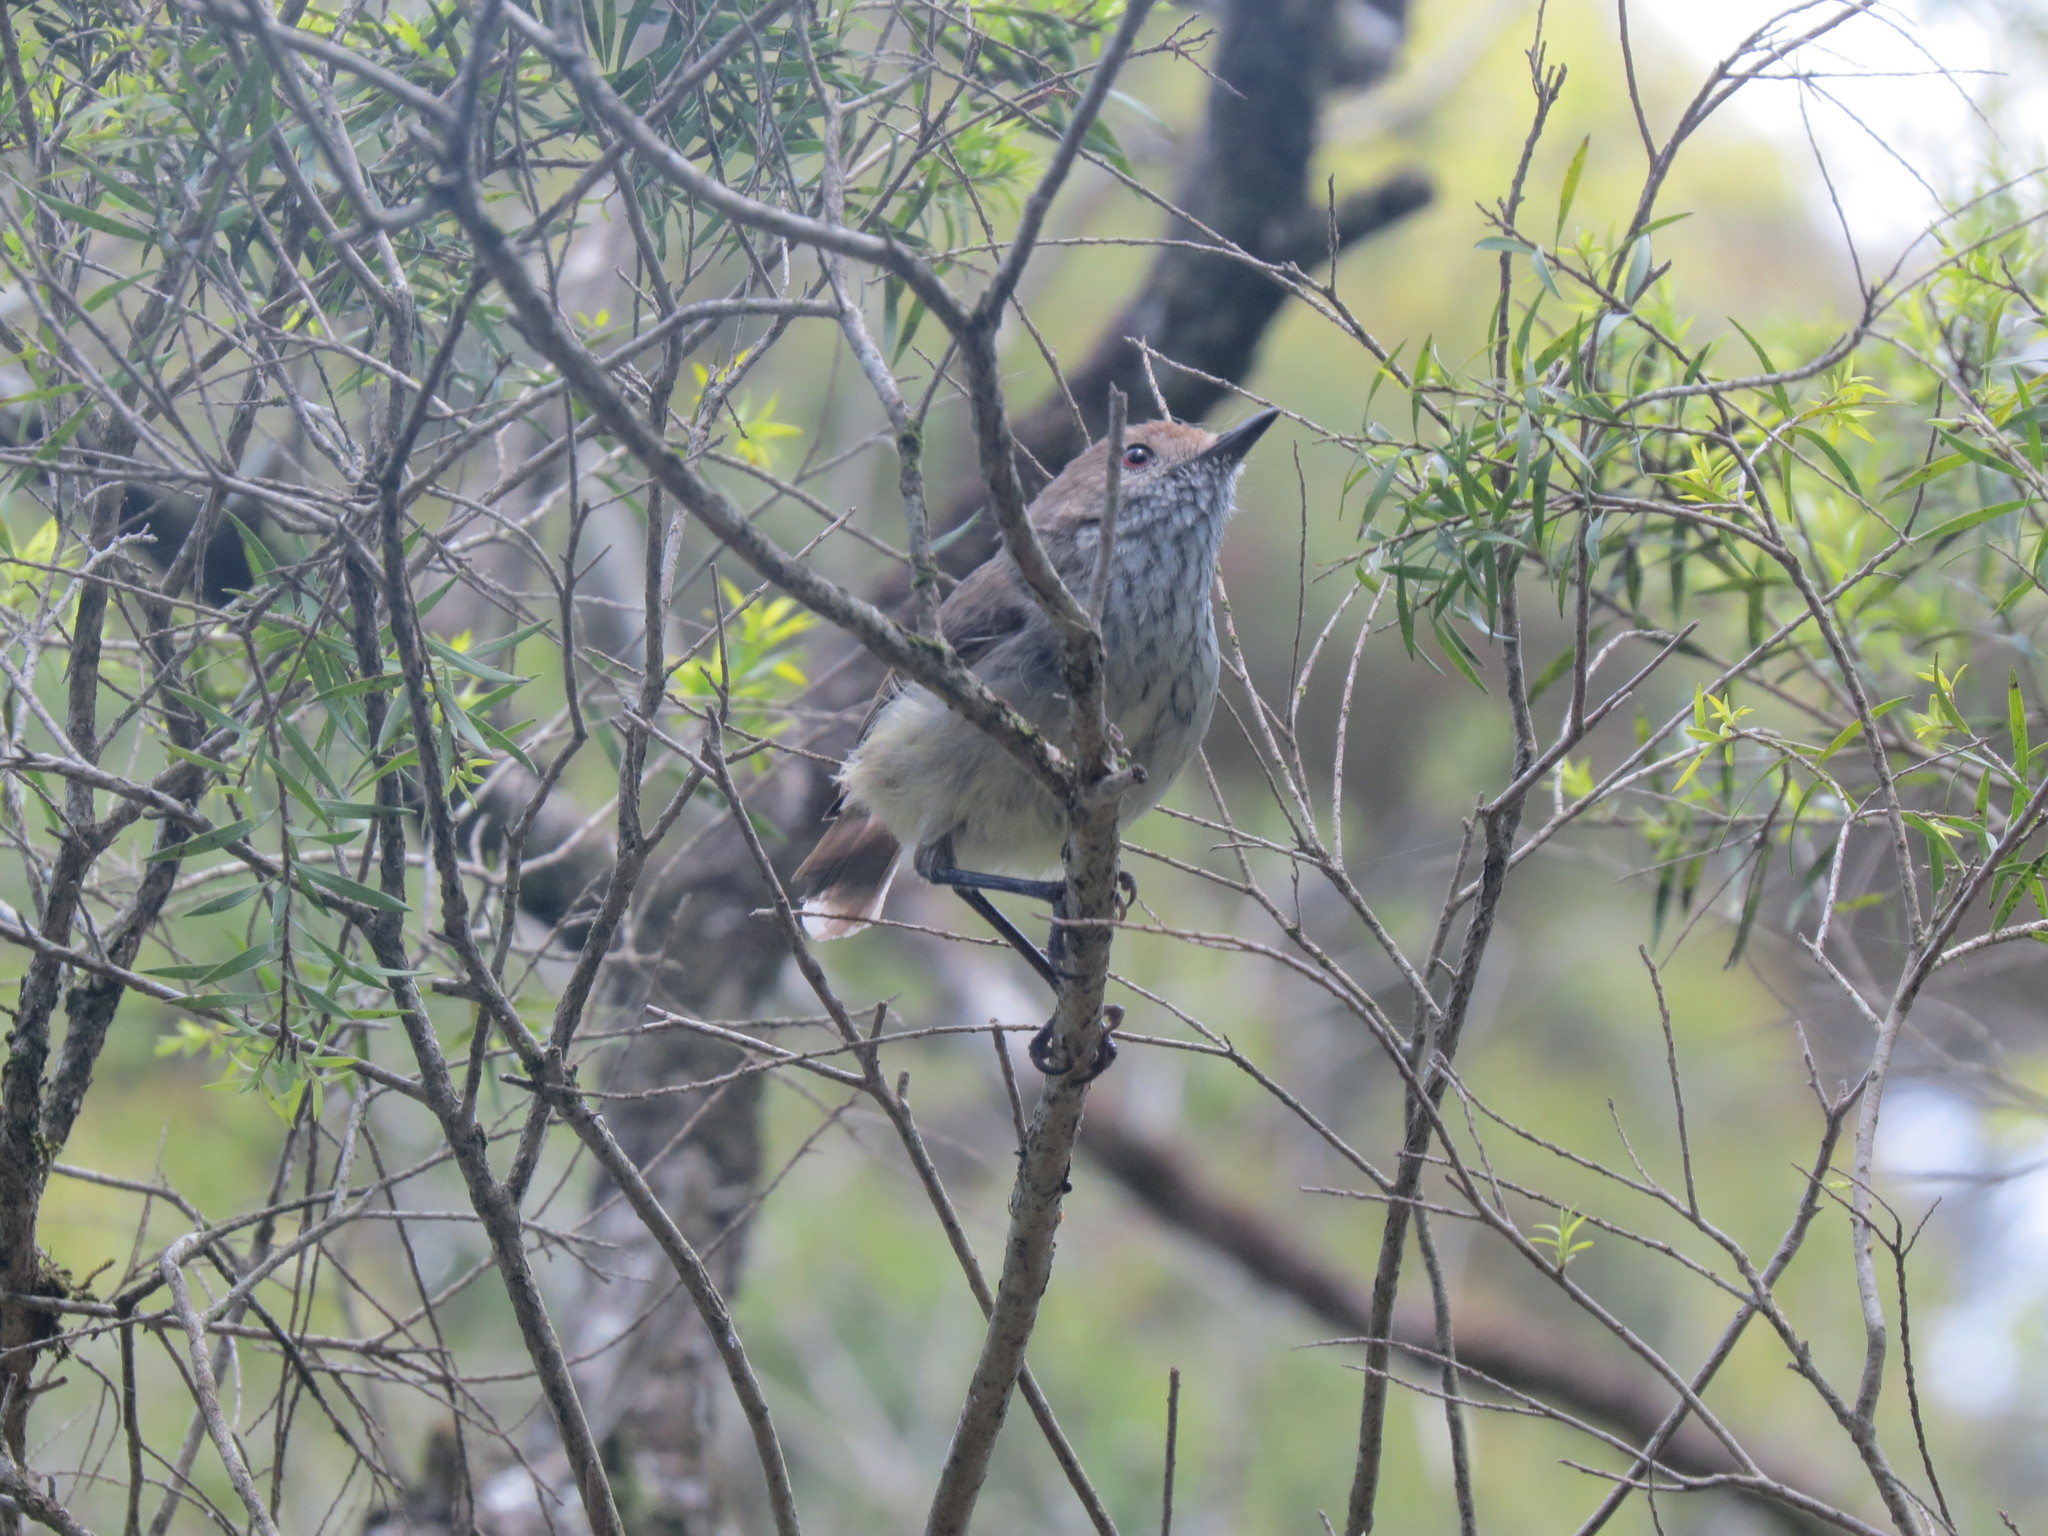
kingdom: Animalia
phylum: Chordata
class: Aves
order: Passeriformes
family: Acanthizidae
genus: Acanthiza
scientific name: Acanthiza pusilla
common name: Brown thornbill
